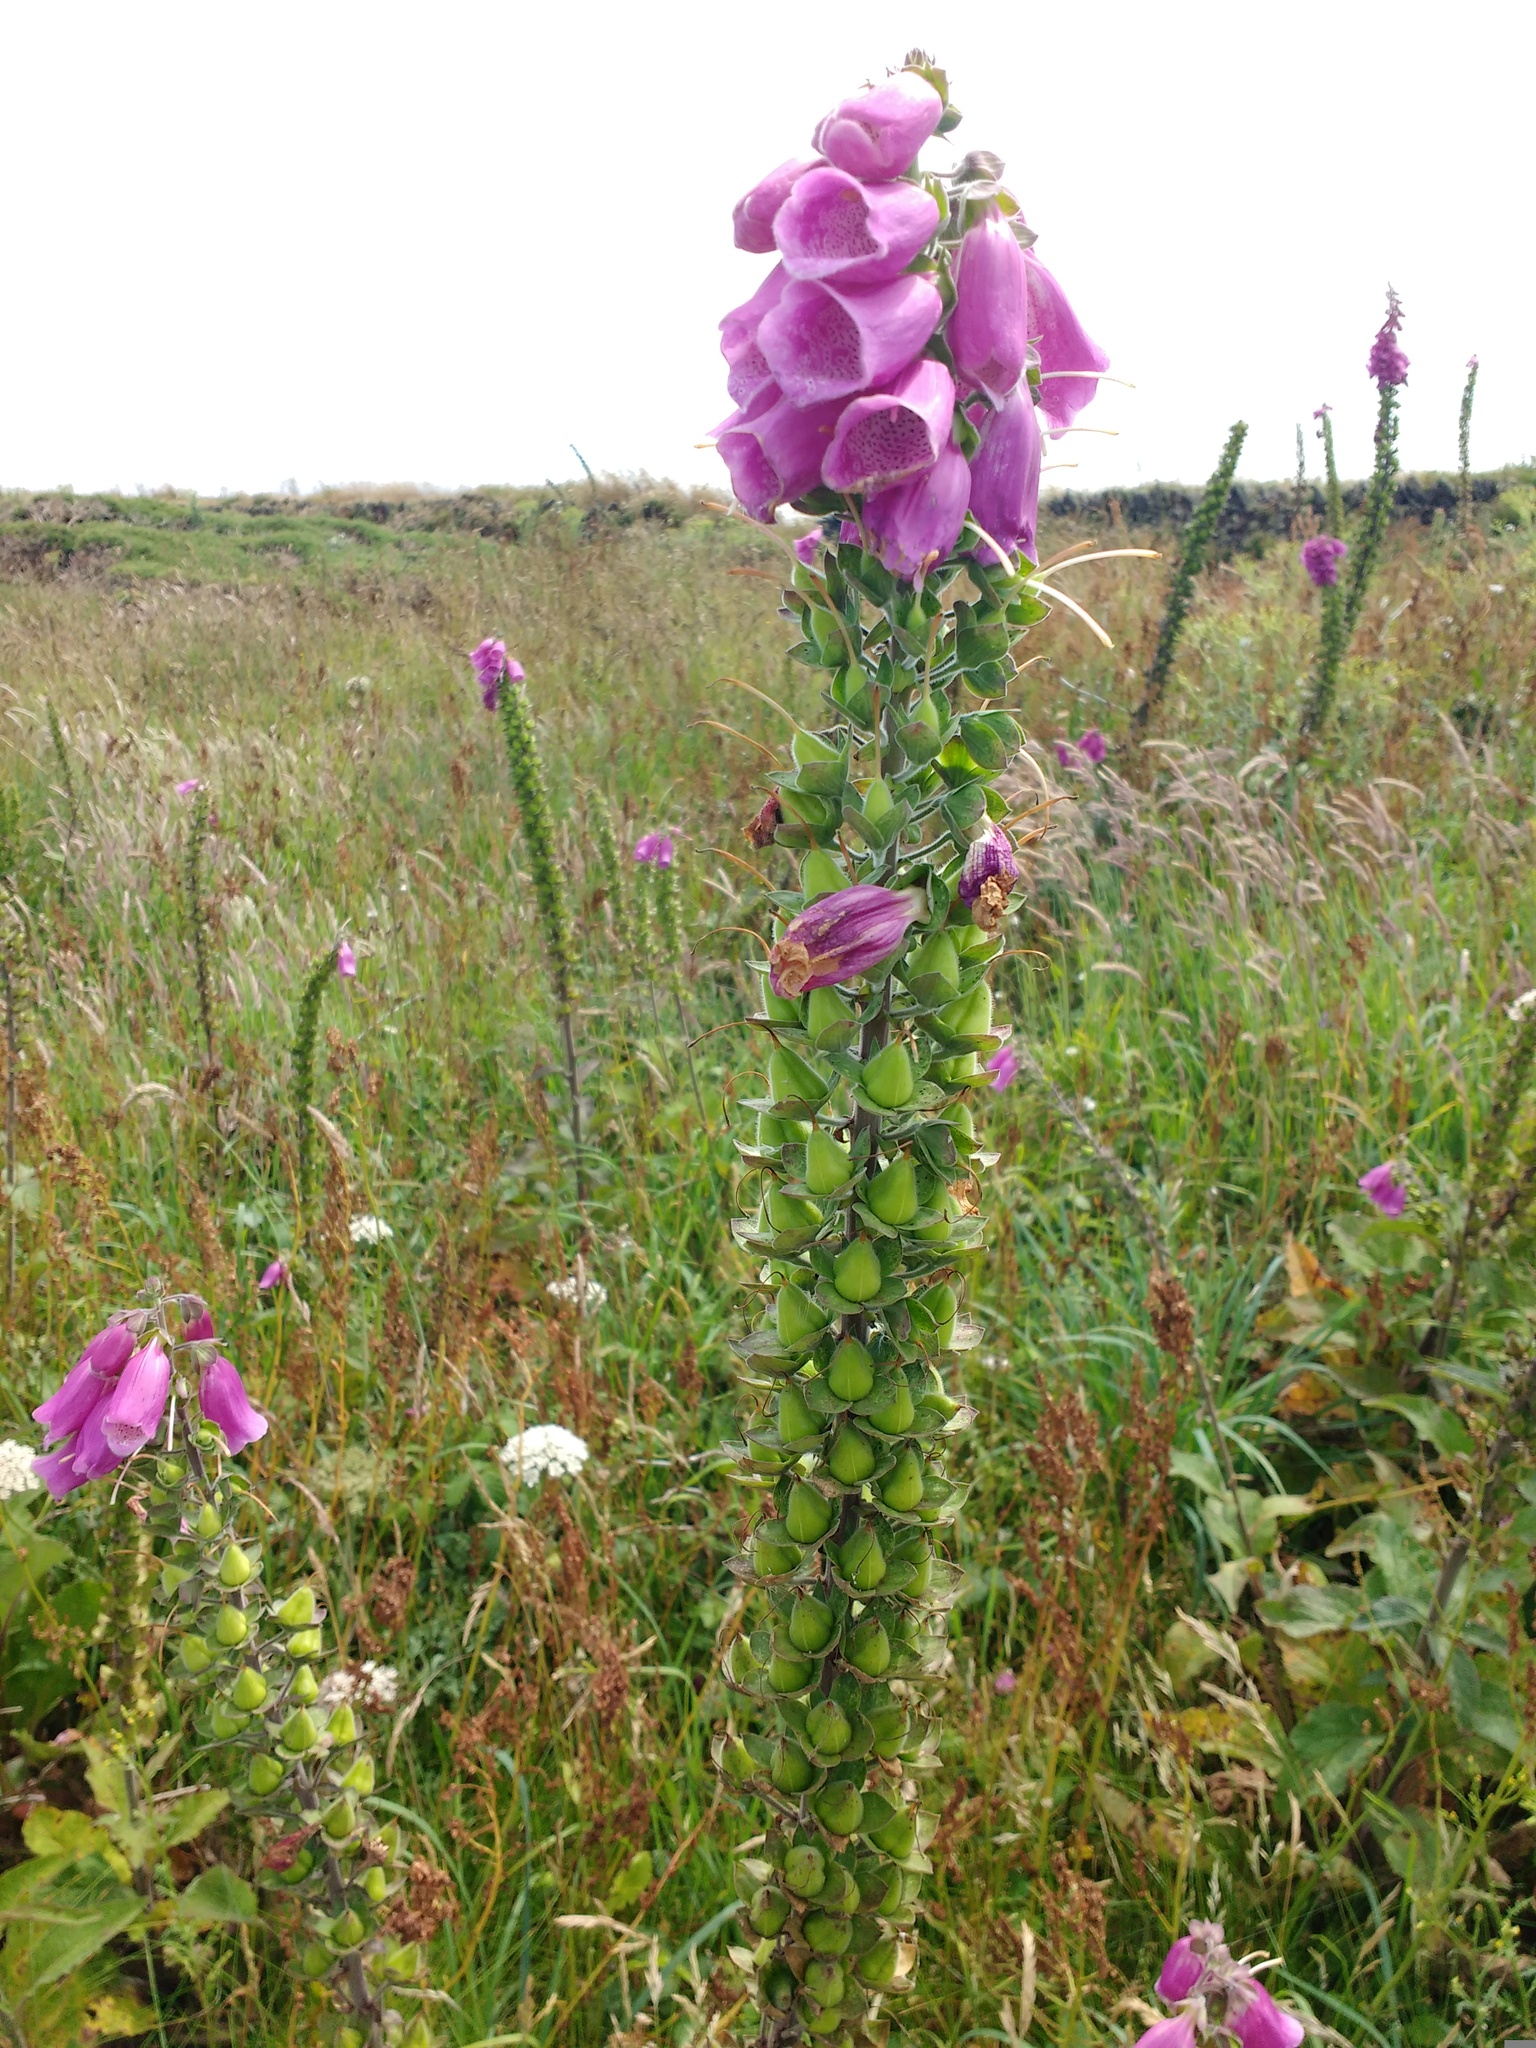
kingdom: Plantae
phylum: Tracheophyta
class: Magnoliopsida
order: Lamiales
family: Plantaginaceae
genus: Digitalis
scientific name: Digitalis purpurea
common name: Foxglove
